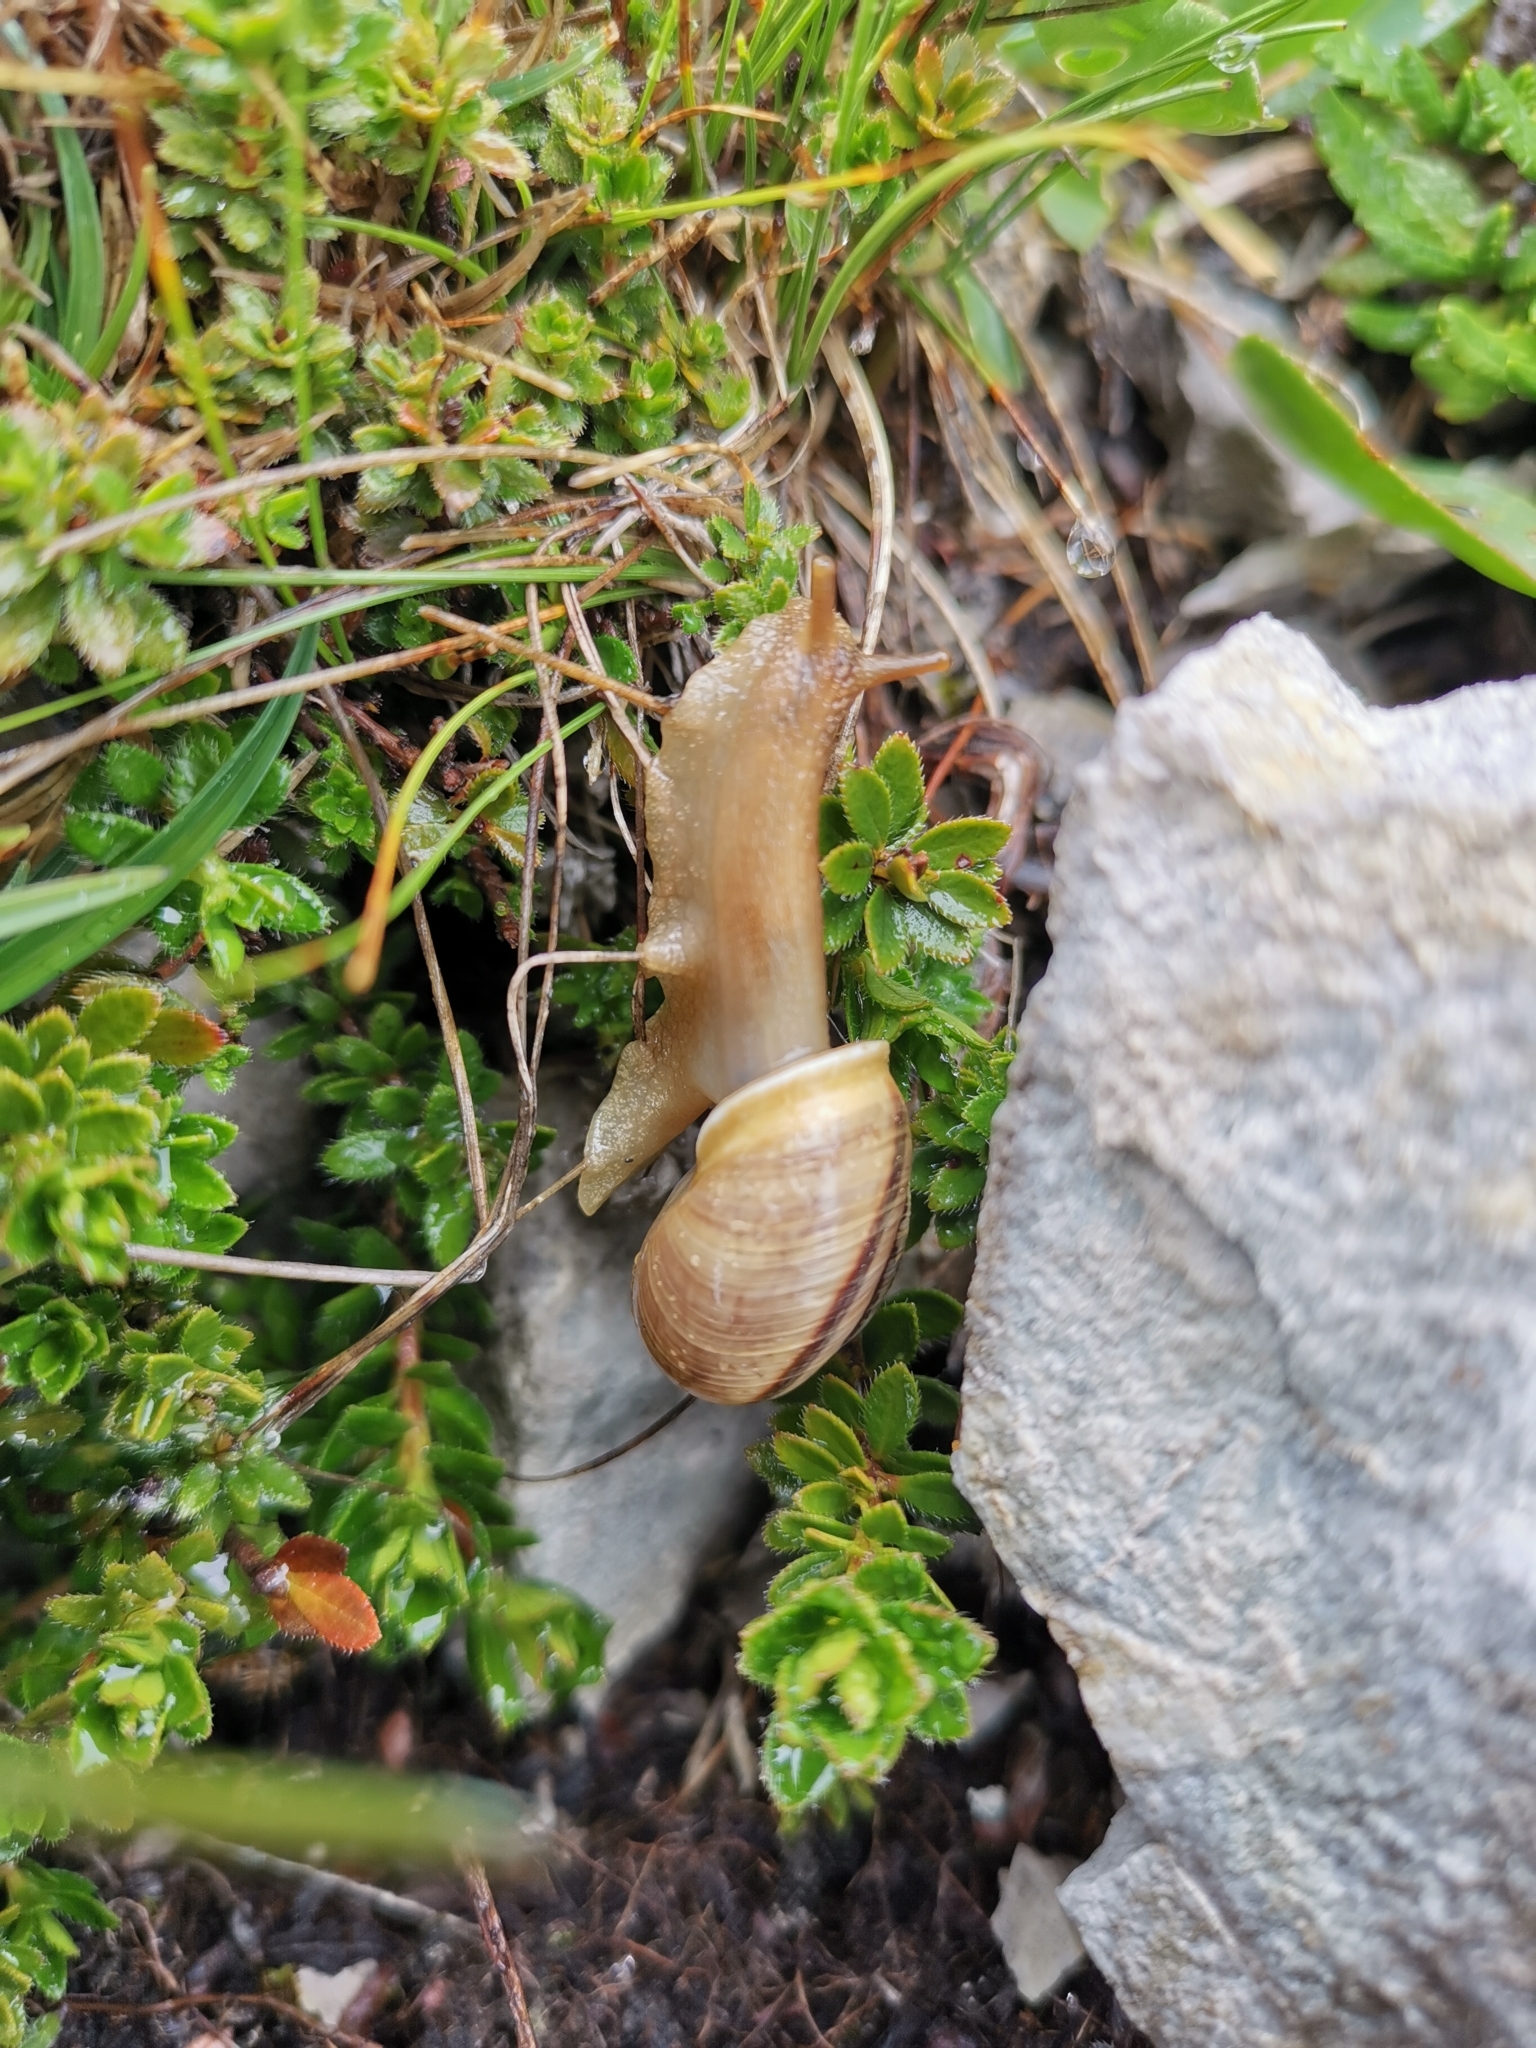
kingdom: Animalia
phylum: Mollusca
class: Gastropoda
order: Stylommatophora
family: Helicidae
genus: Arianta
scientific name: Arianta arbustorum
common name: Copse snail
